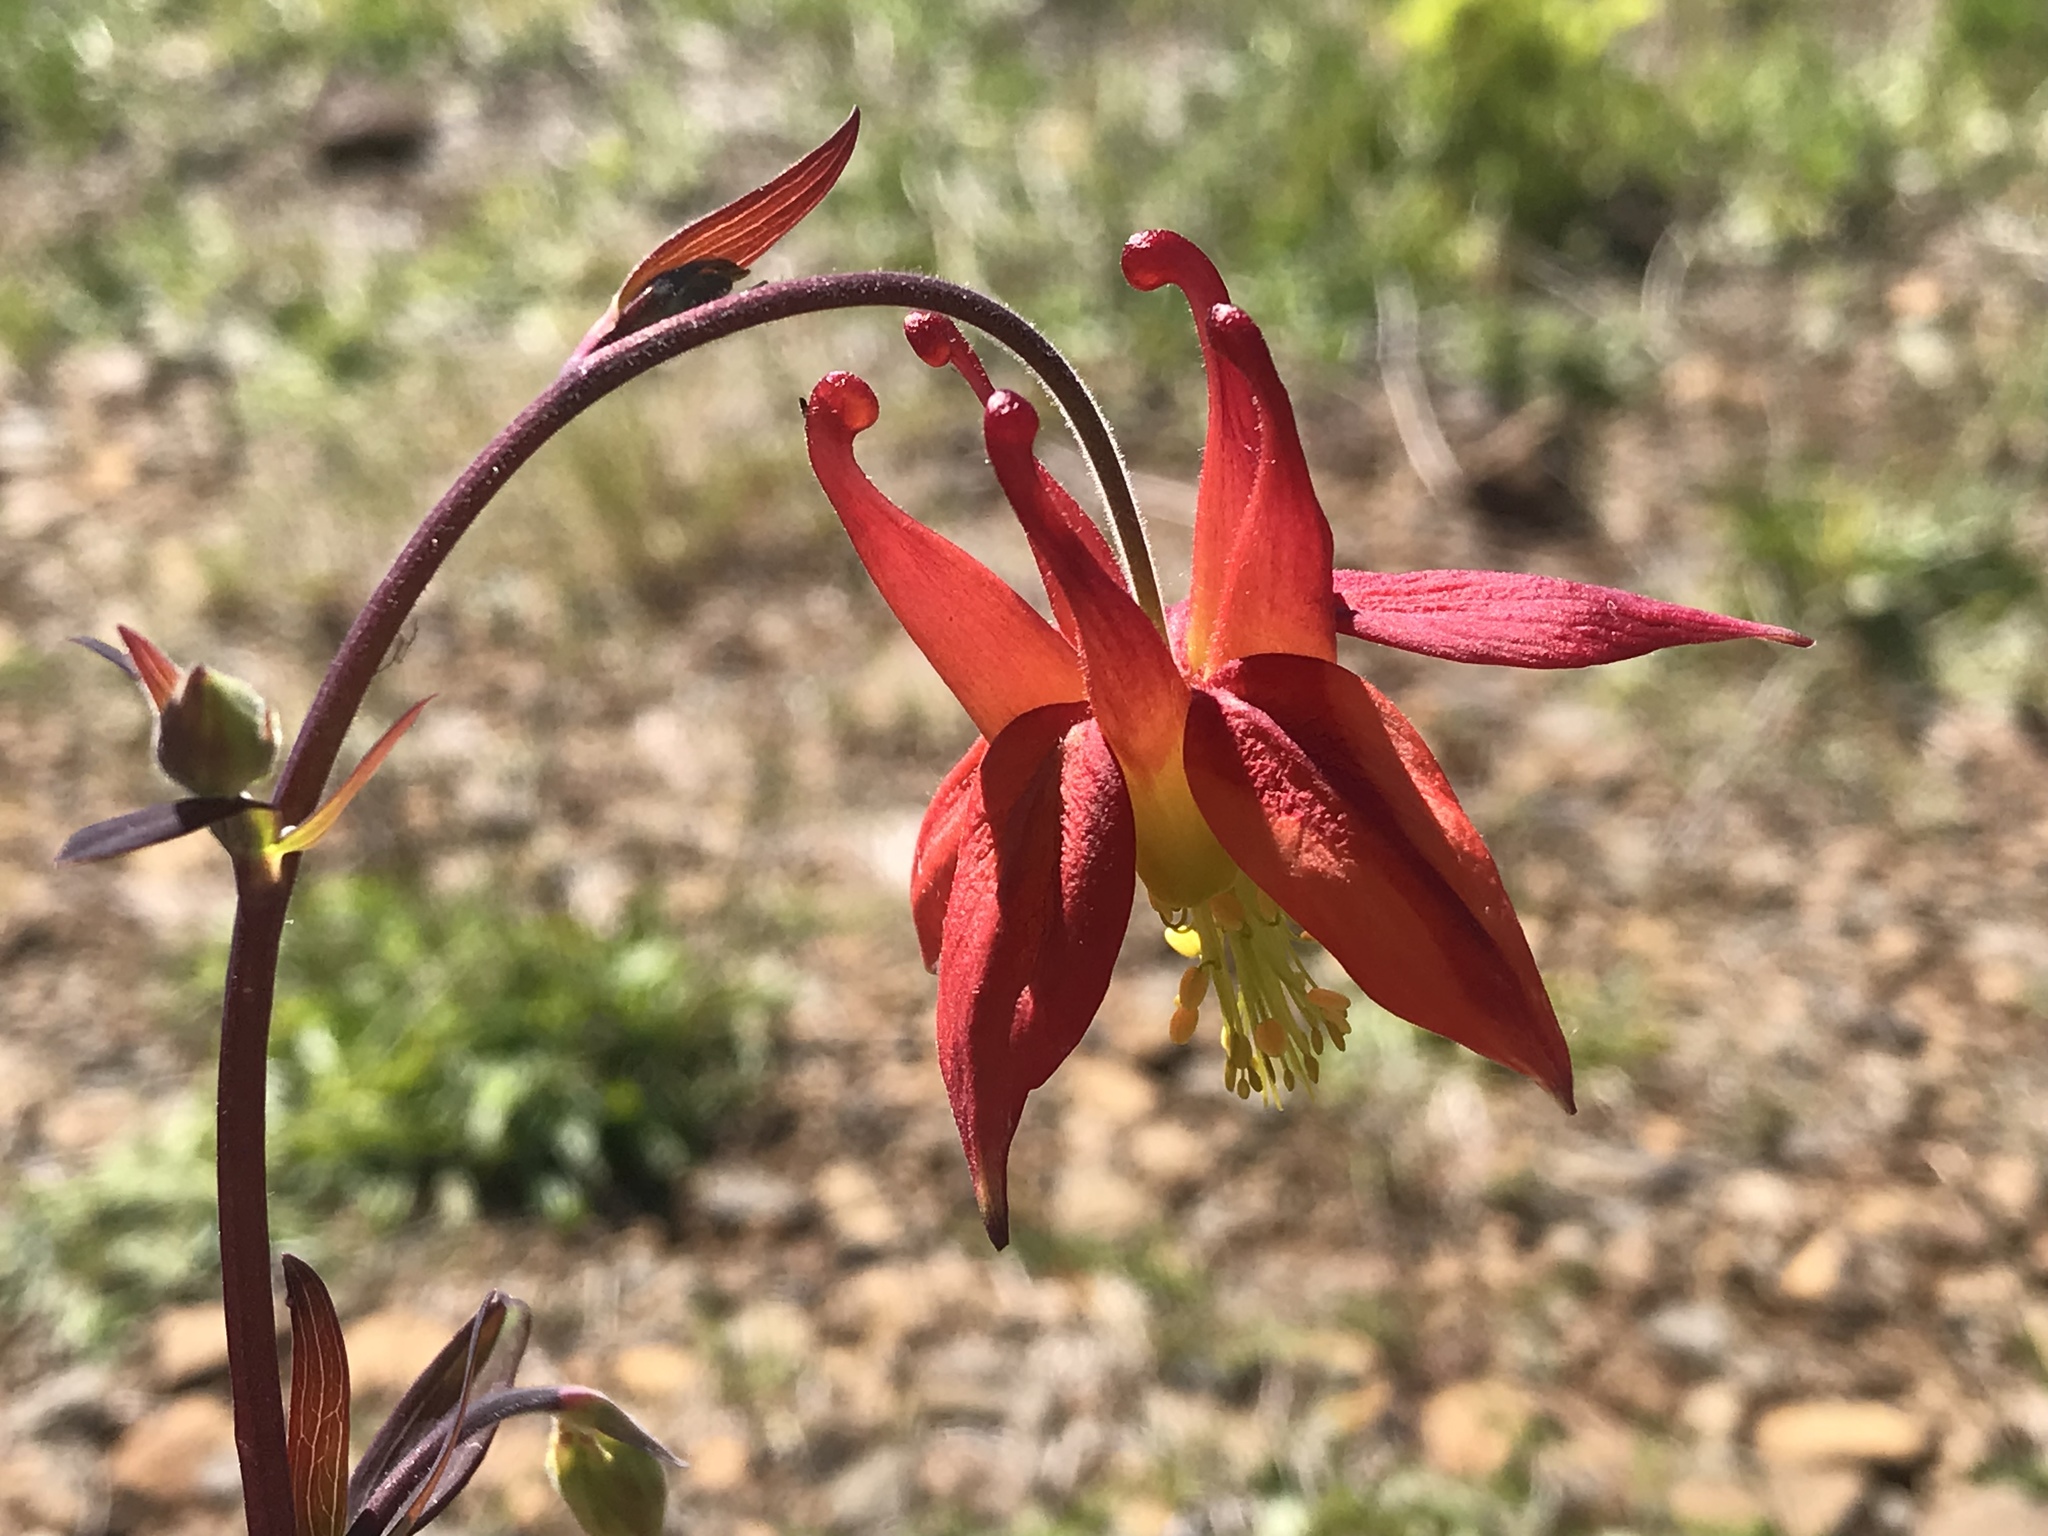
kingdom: Plantae
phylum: Tracheophyta
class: Magnoliopsida
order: Ranunculales
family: Ranunculaceae
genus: Aquilegia
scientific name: Aquilegia formosa
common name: Sitka columbine
